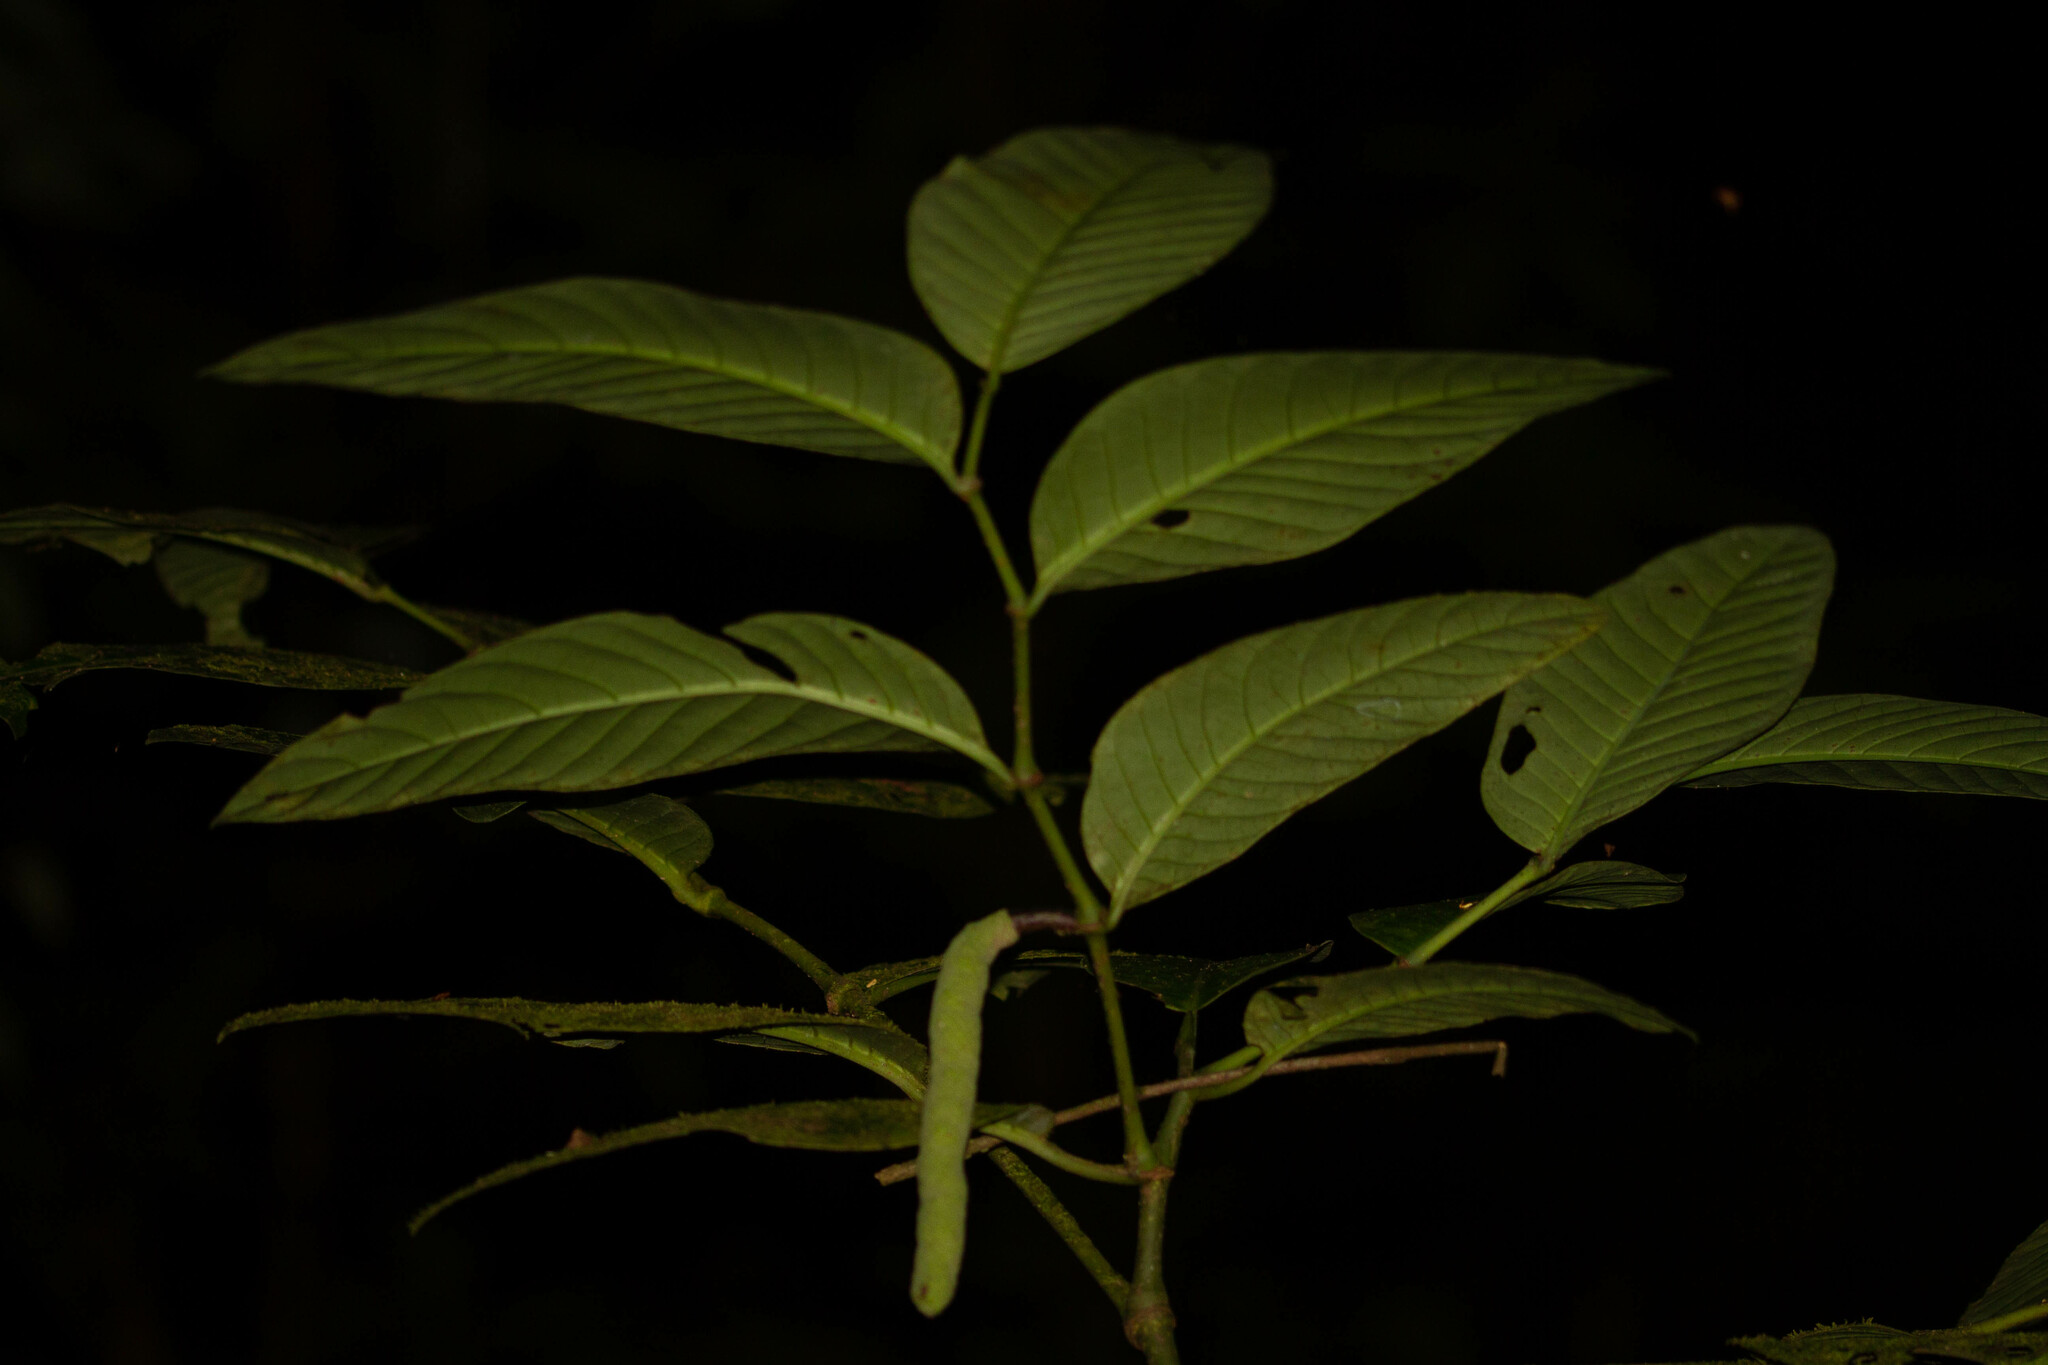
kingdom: Plantae
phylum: Tracheophyta
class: Magnoliopsida
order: Piperales
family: Piperaceae
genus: Piper
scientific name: Piper augustum
